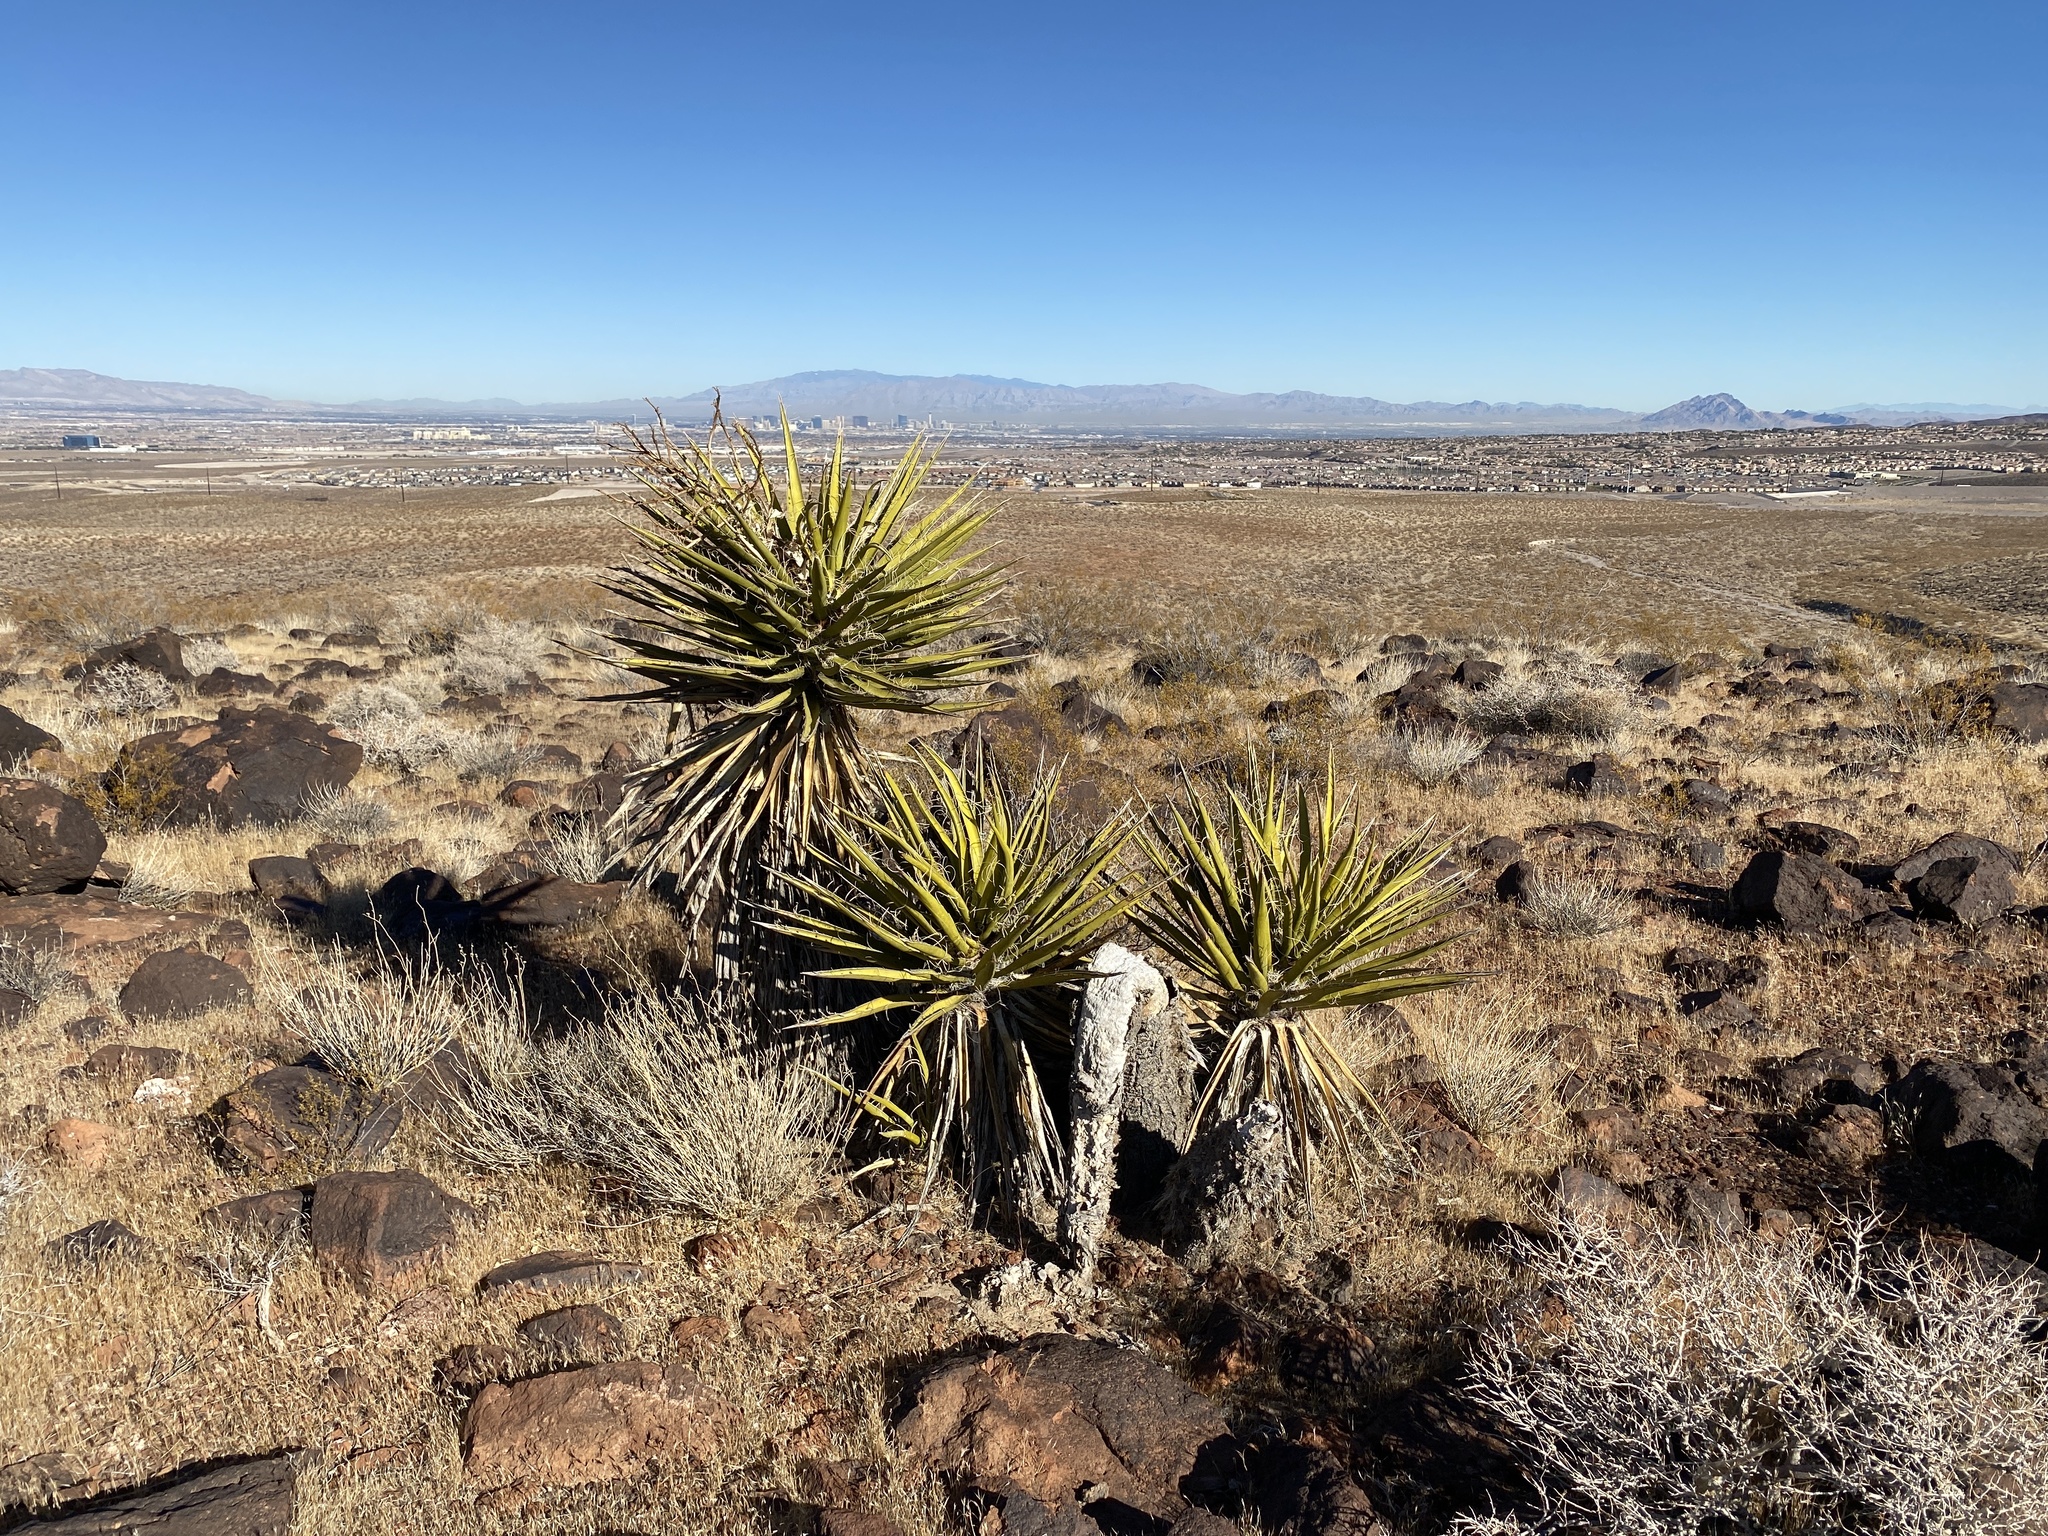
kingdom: Plantae
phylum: Tracheophyta
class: Liliopsida
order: Asparagales
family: Asparagaceae
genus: Yucca
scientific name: Yucca schidigera
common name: Mojave yucca
